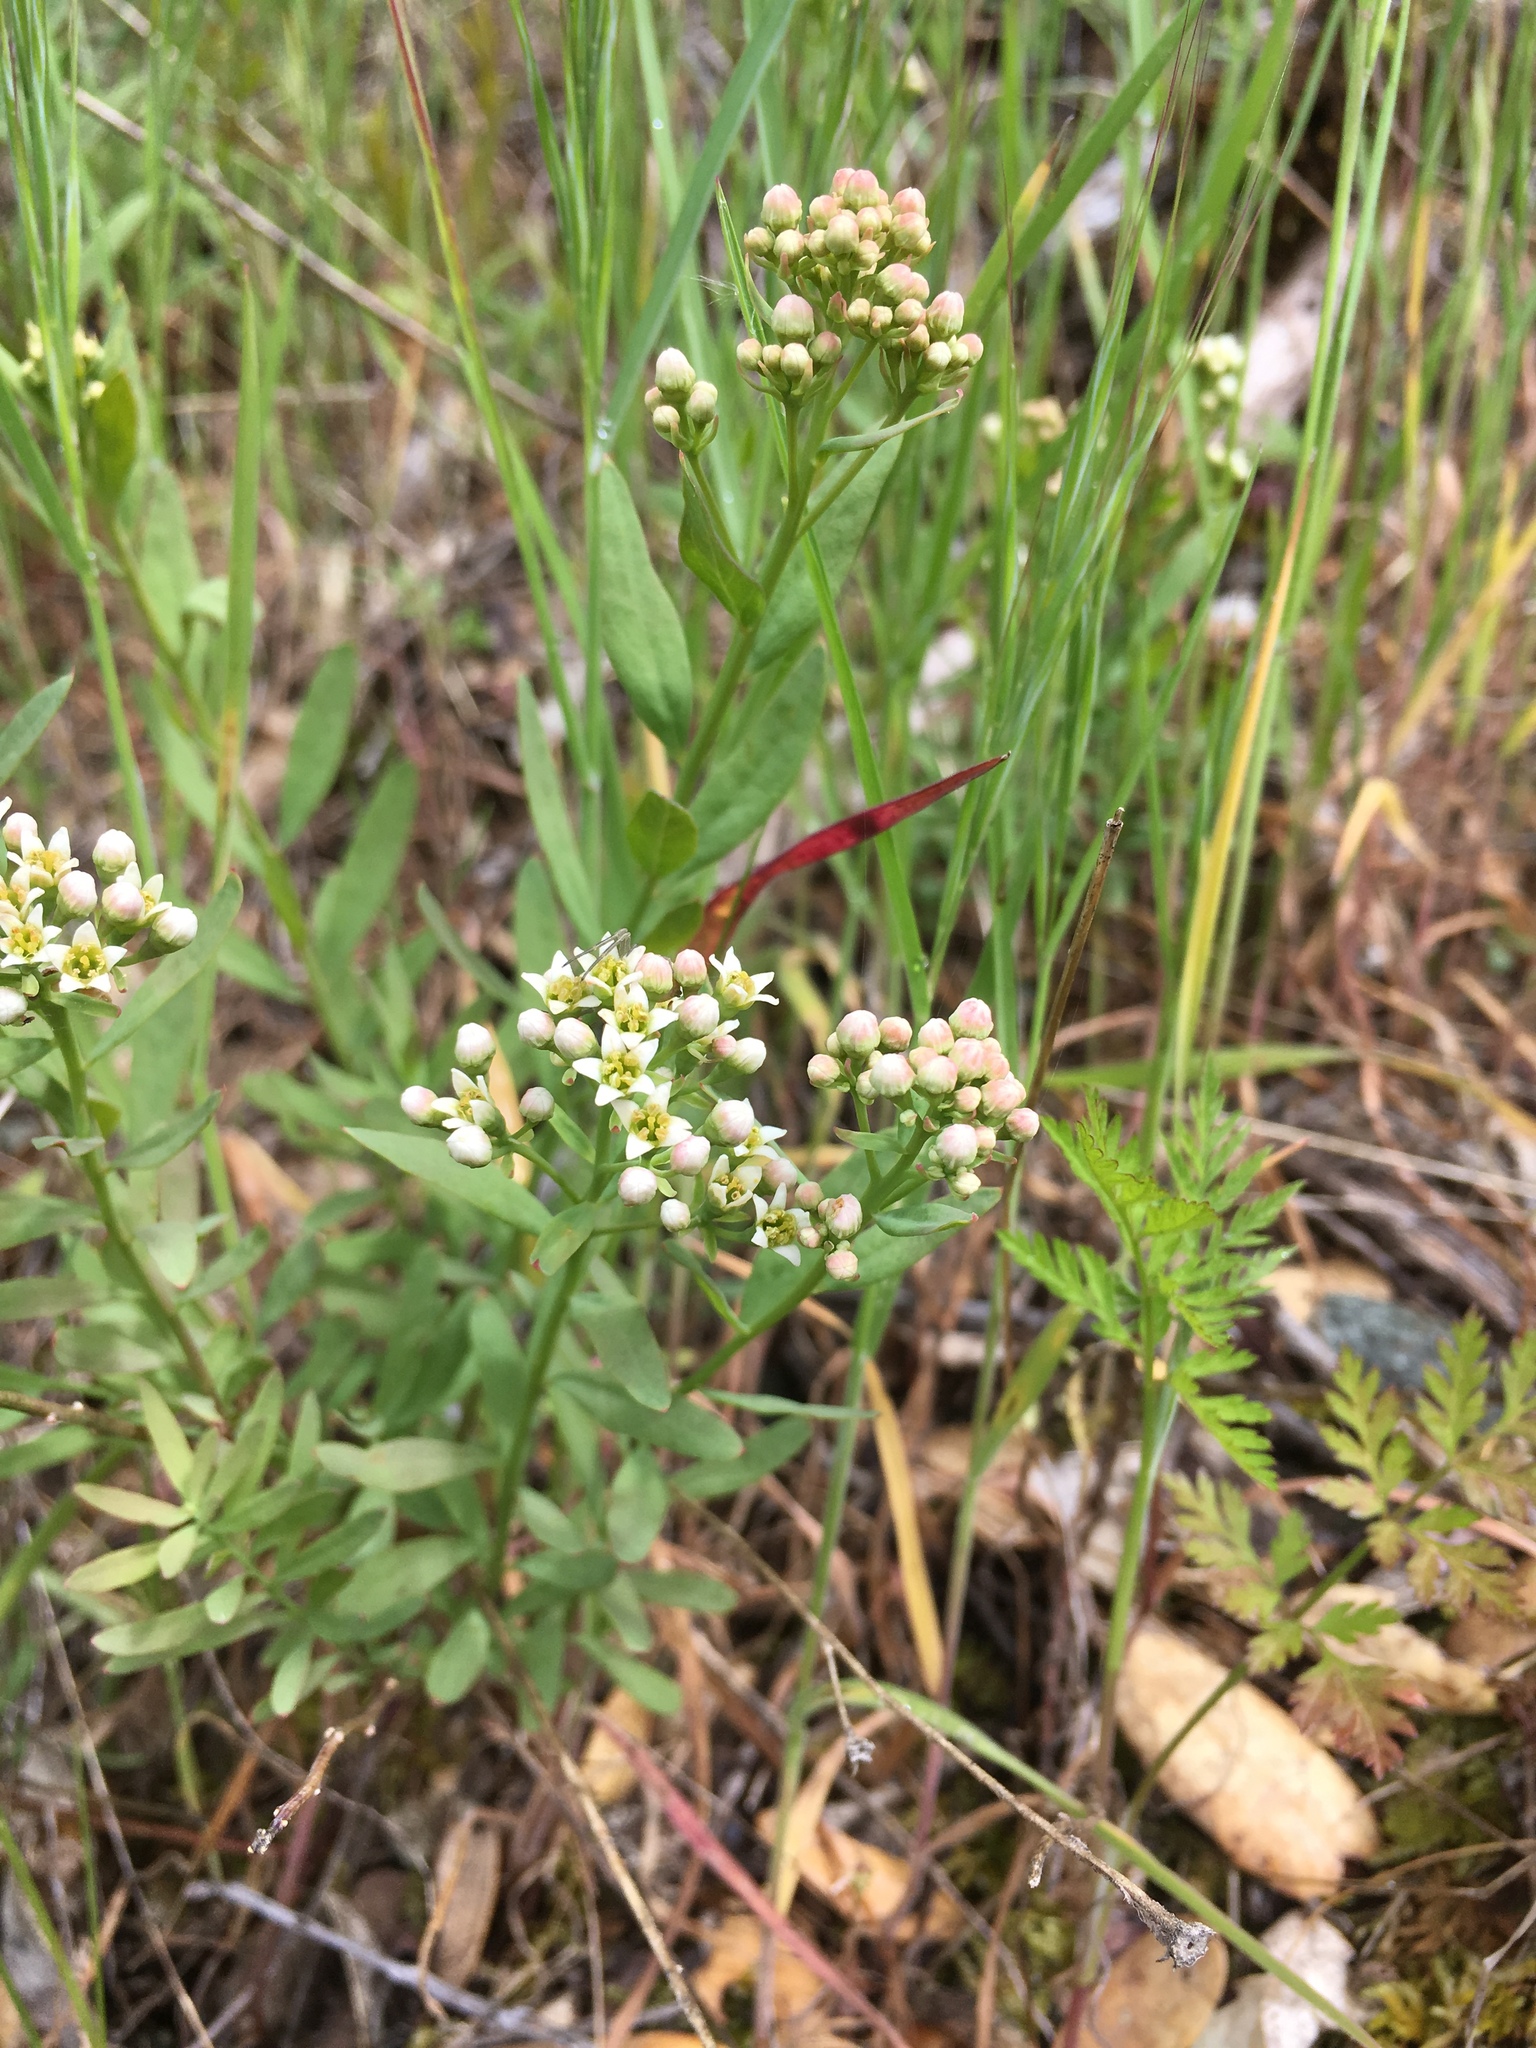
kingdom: Plantae
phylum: Tracheophyta
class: Magnoliopsida
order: Santalales
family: Comandraceae
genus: Comandra
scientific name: Comandra umbellata
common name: Bastard toadflax
